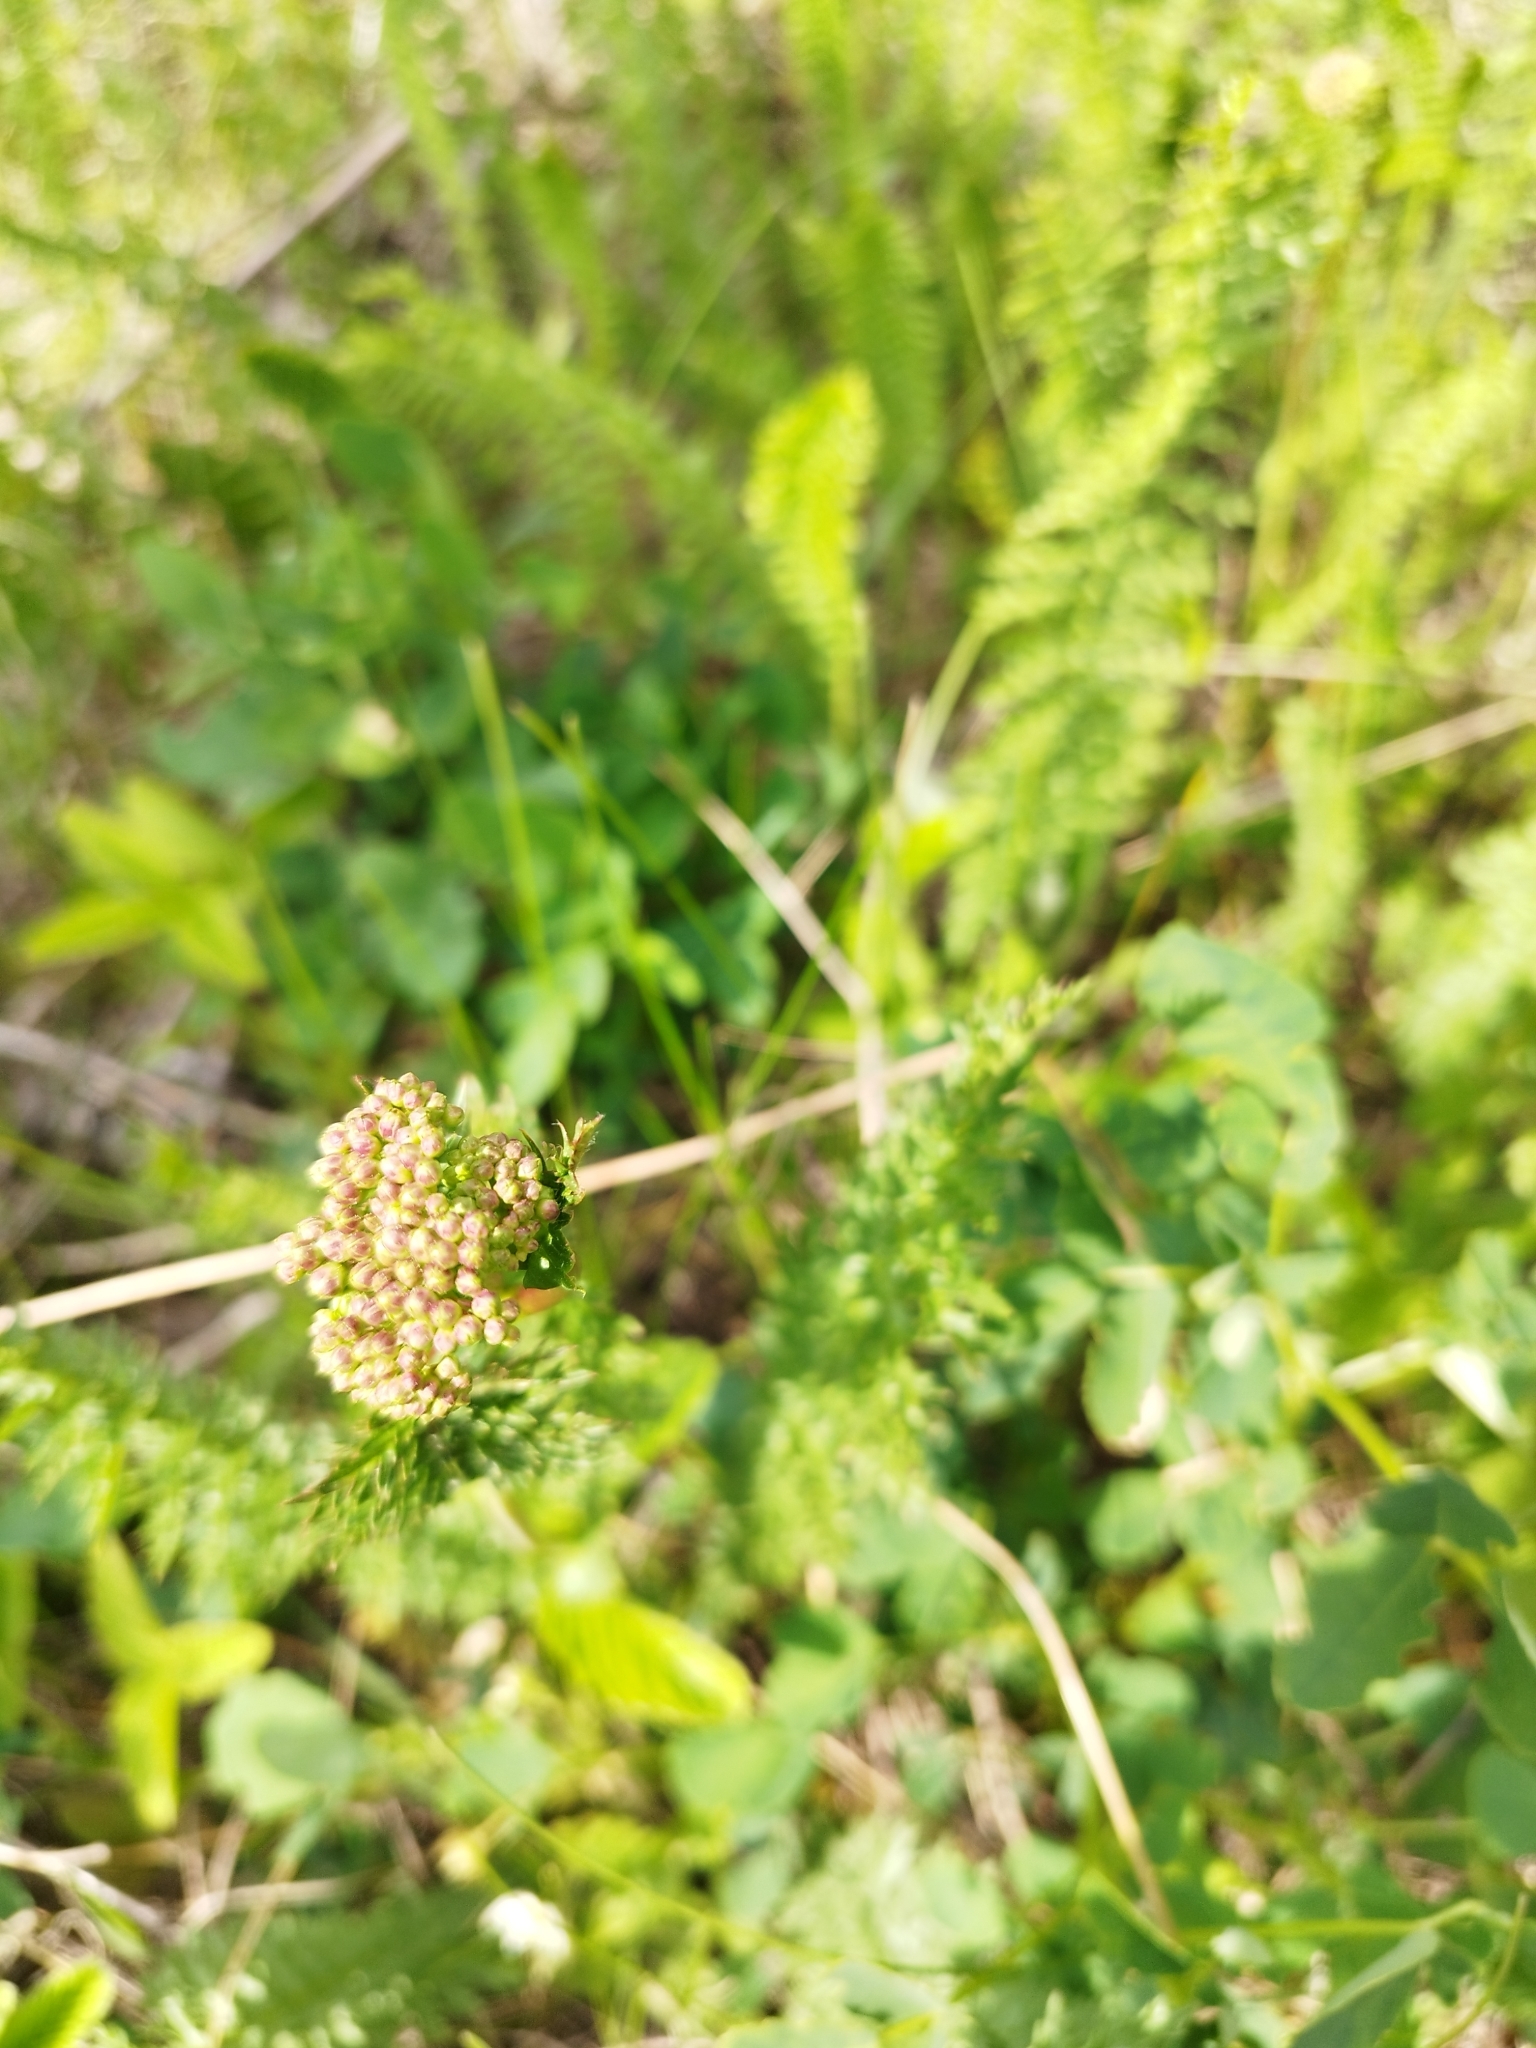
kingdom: Plantae
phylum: Tracheophyta
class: Magnoliopsida
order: Rosales
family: Rosaceae
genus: Filipendula
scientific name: Filipendula vulgaris
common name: Dropwort
